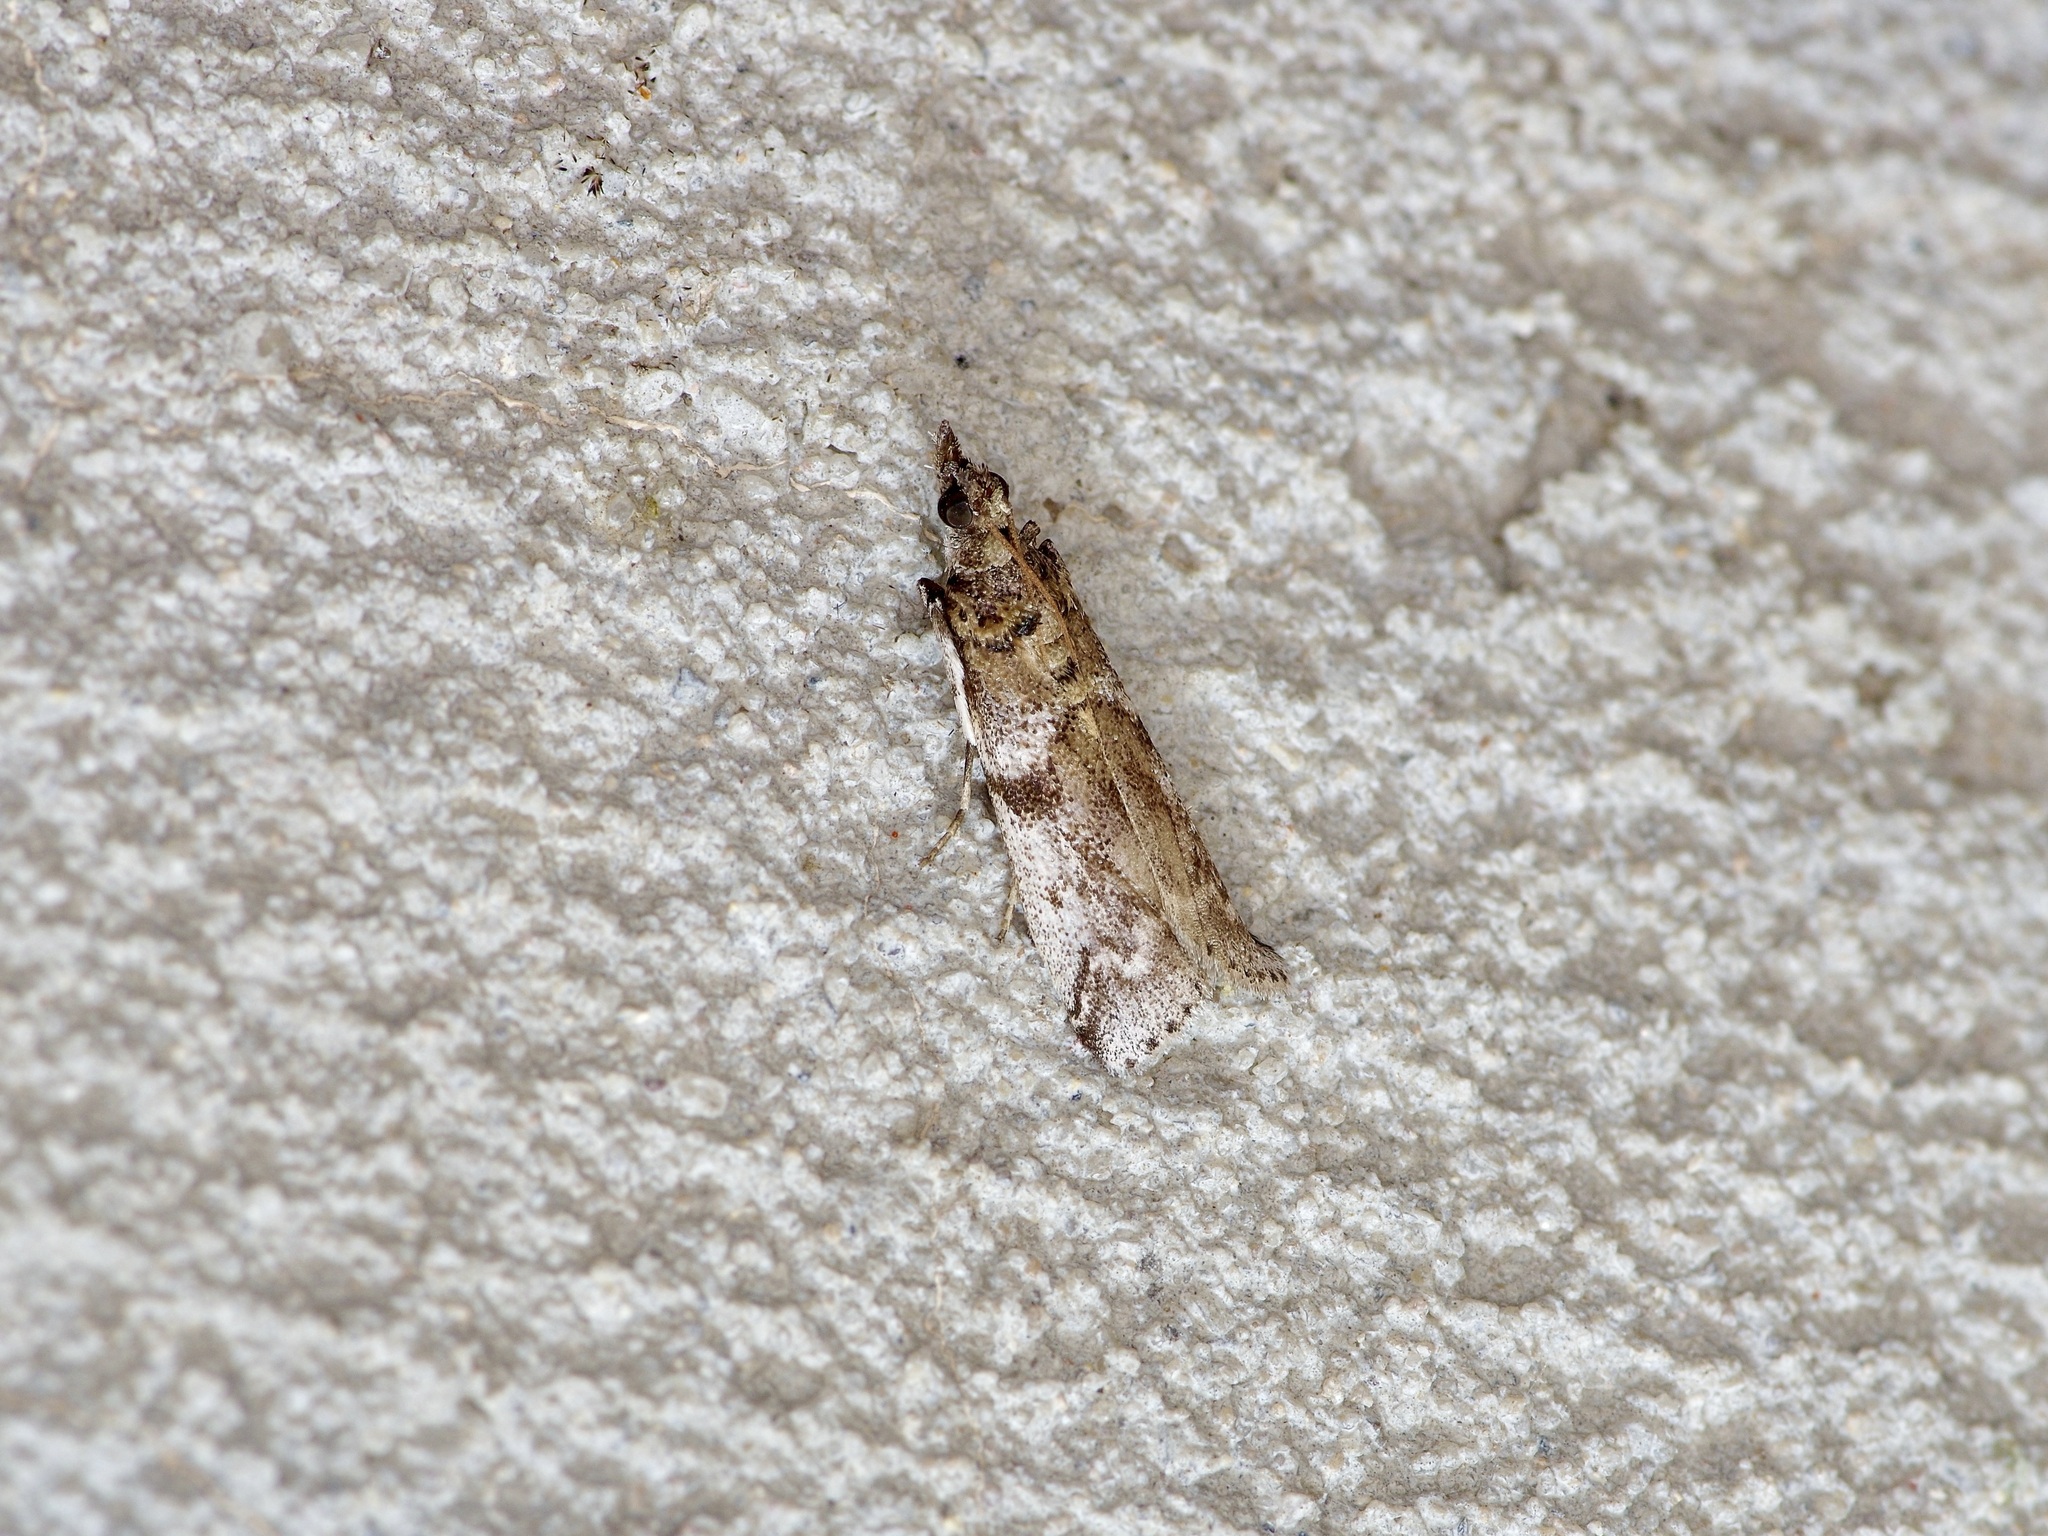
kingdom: Animalia
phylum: Arthropoda
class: Insecta
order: Lepidoptera
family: Pyralidae
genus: Laetilia
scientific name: Laetilia coccidivora
